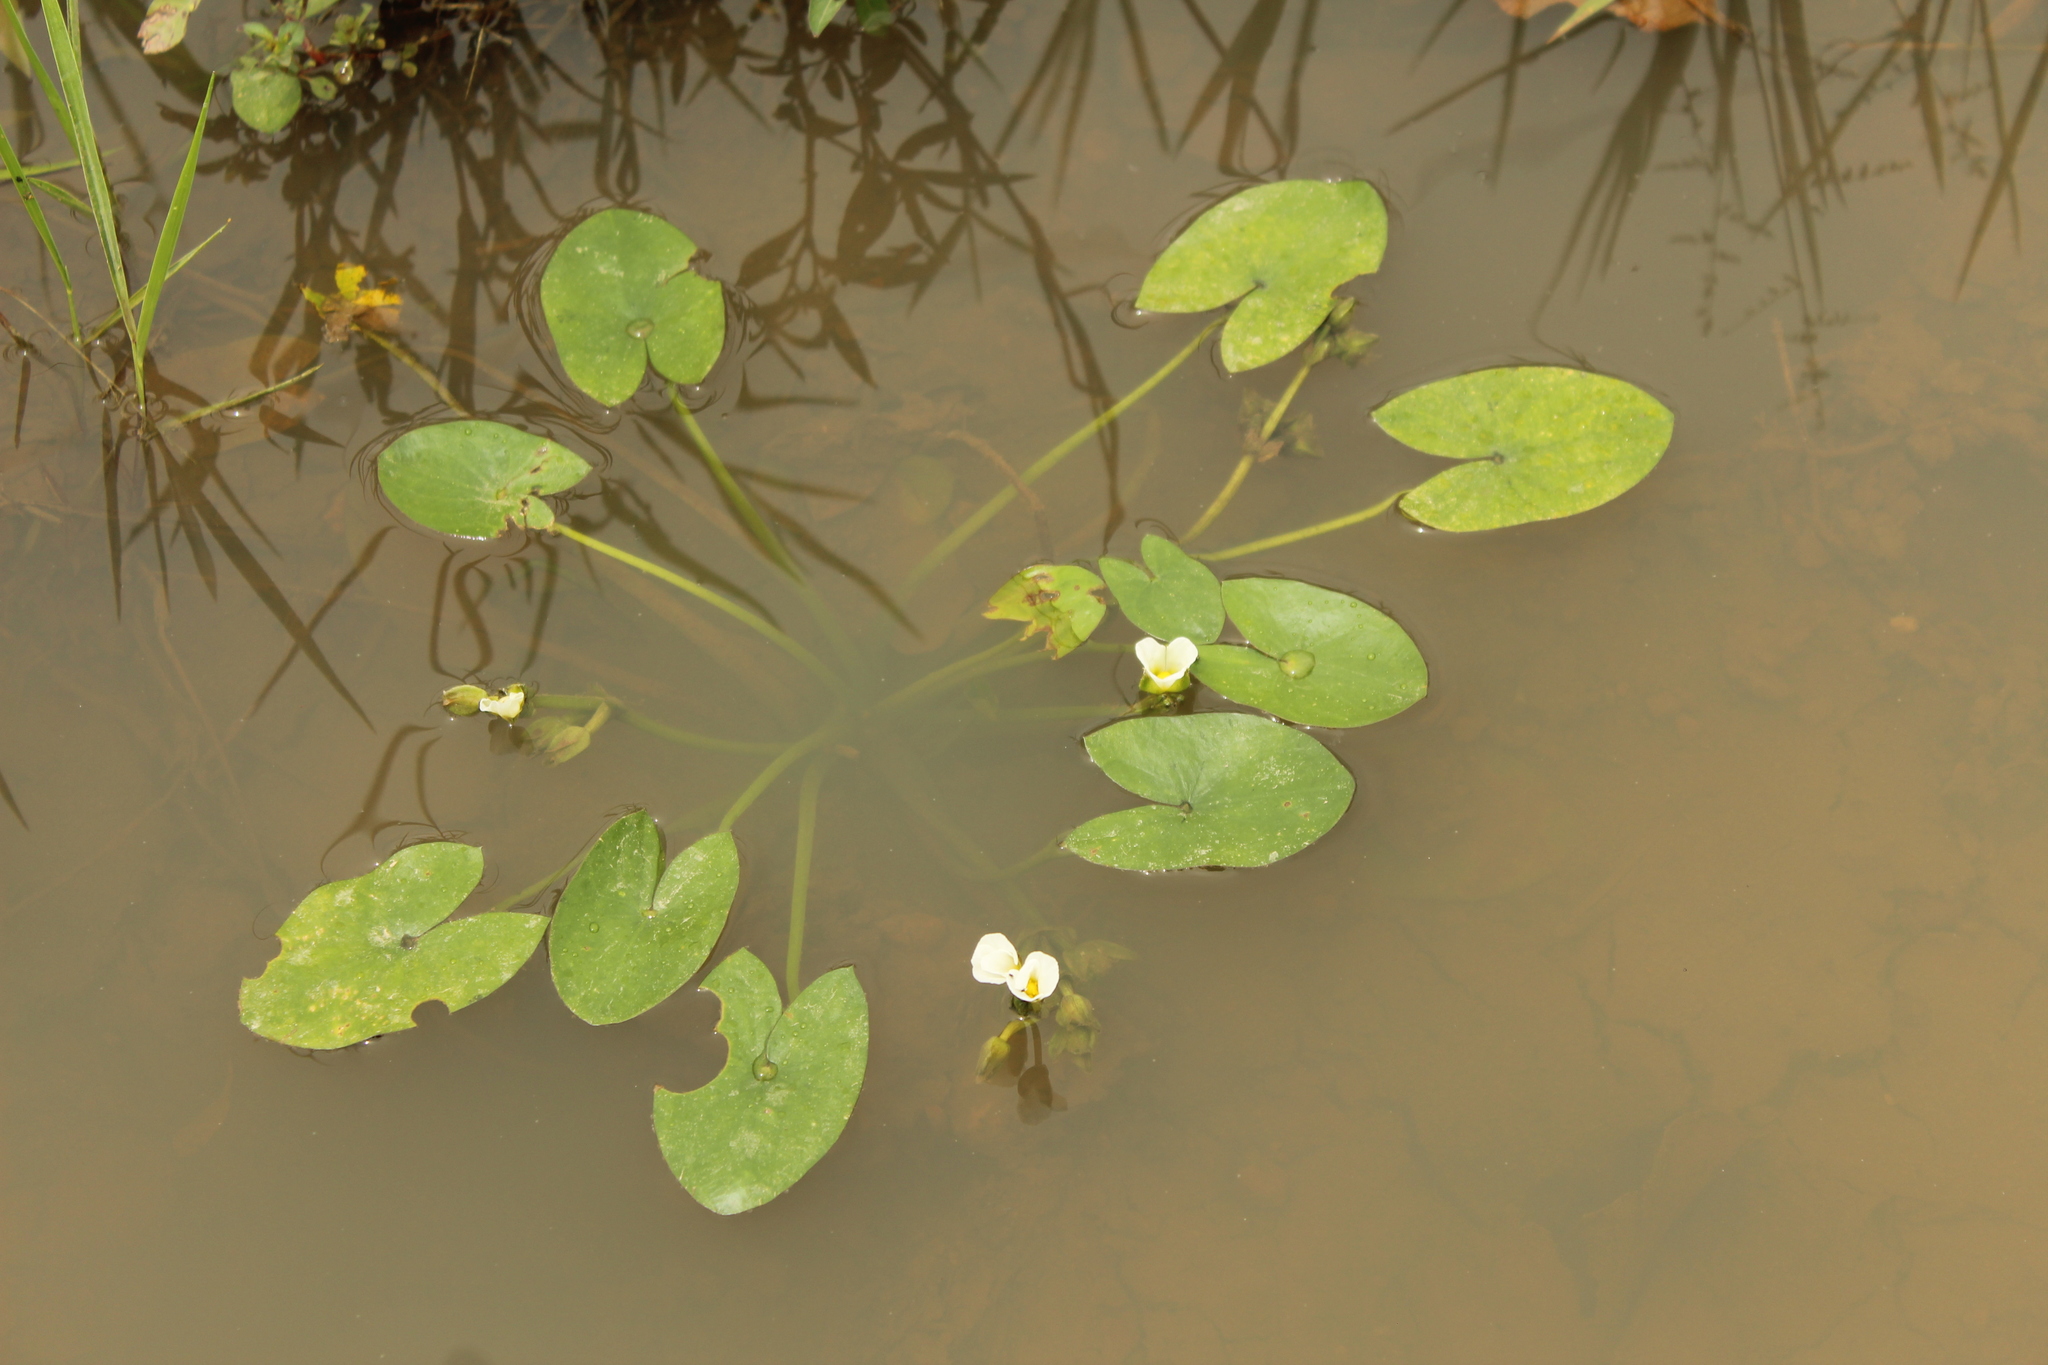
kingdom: Plantae
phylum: Tracheophyta
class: Liliopsida
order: Alismatales
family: Alismataceae
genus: Sagittaria
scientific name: Sagittaria guayanensis
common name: Guyanese arrowhead
